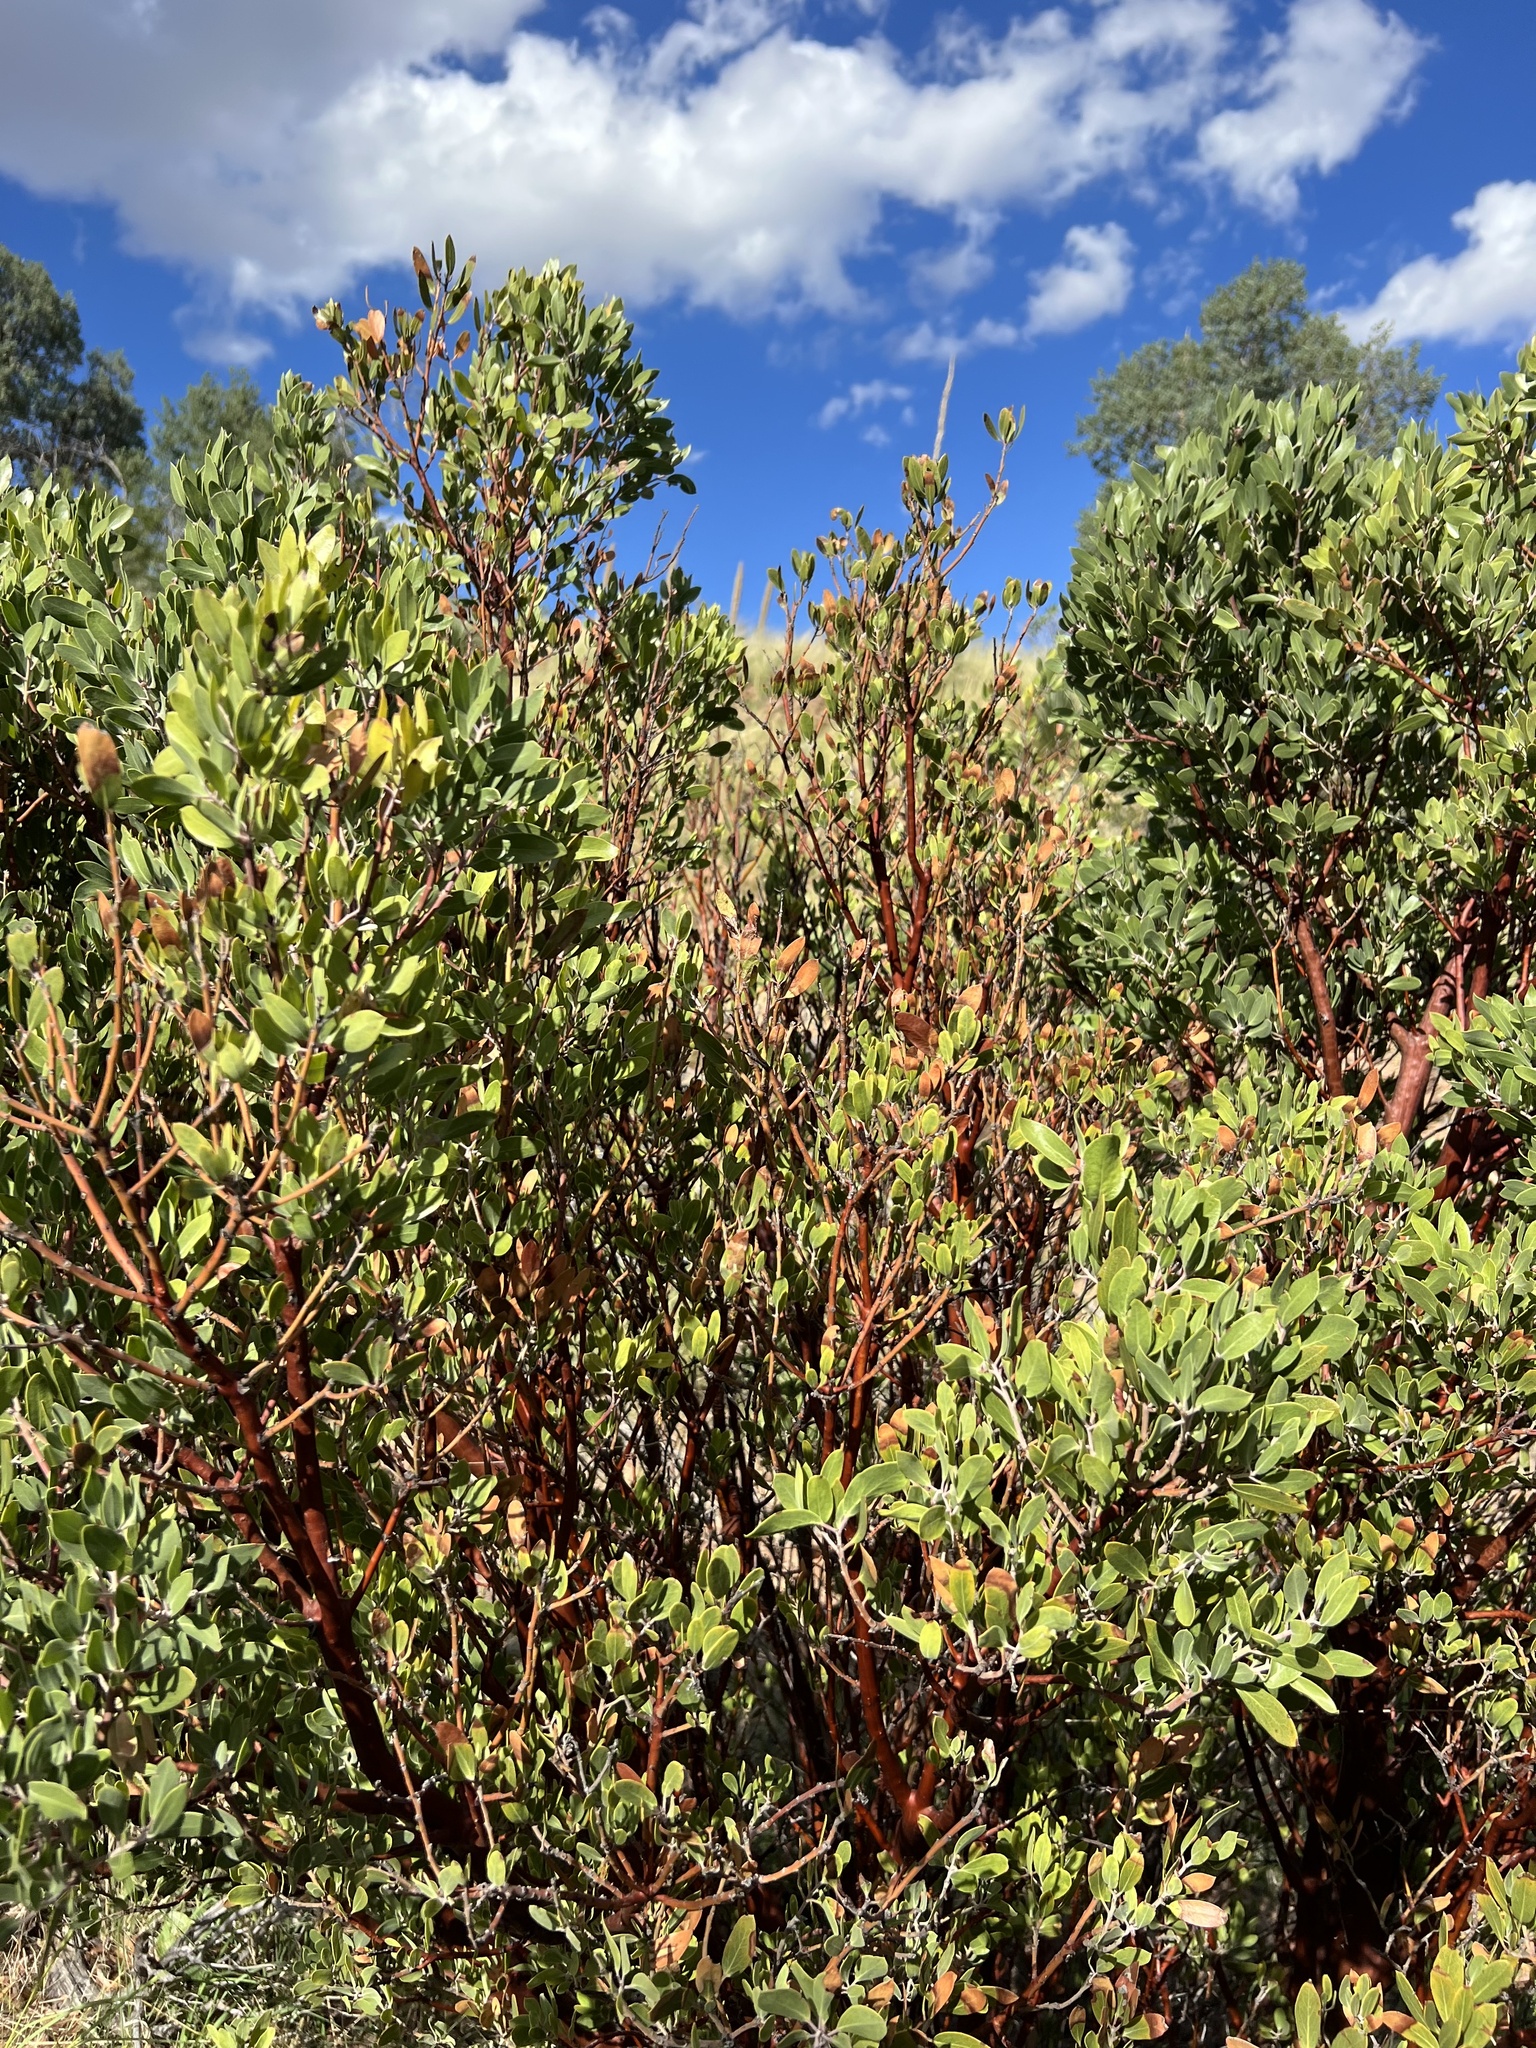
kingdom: Plantae
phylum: Tracheophyta
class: Magnoliopsida
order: Ericales
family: Ericaceae
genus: Arctostaphylos
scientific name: Arctostaphylos pungens
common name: Mexican manzanita
